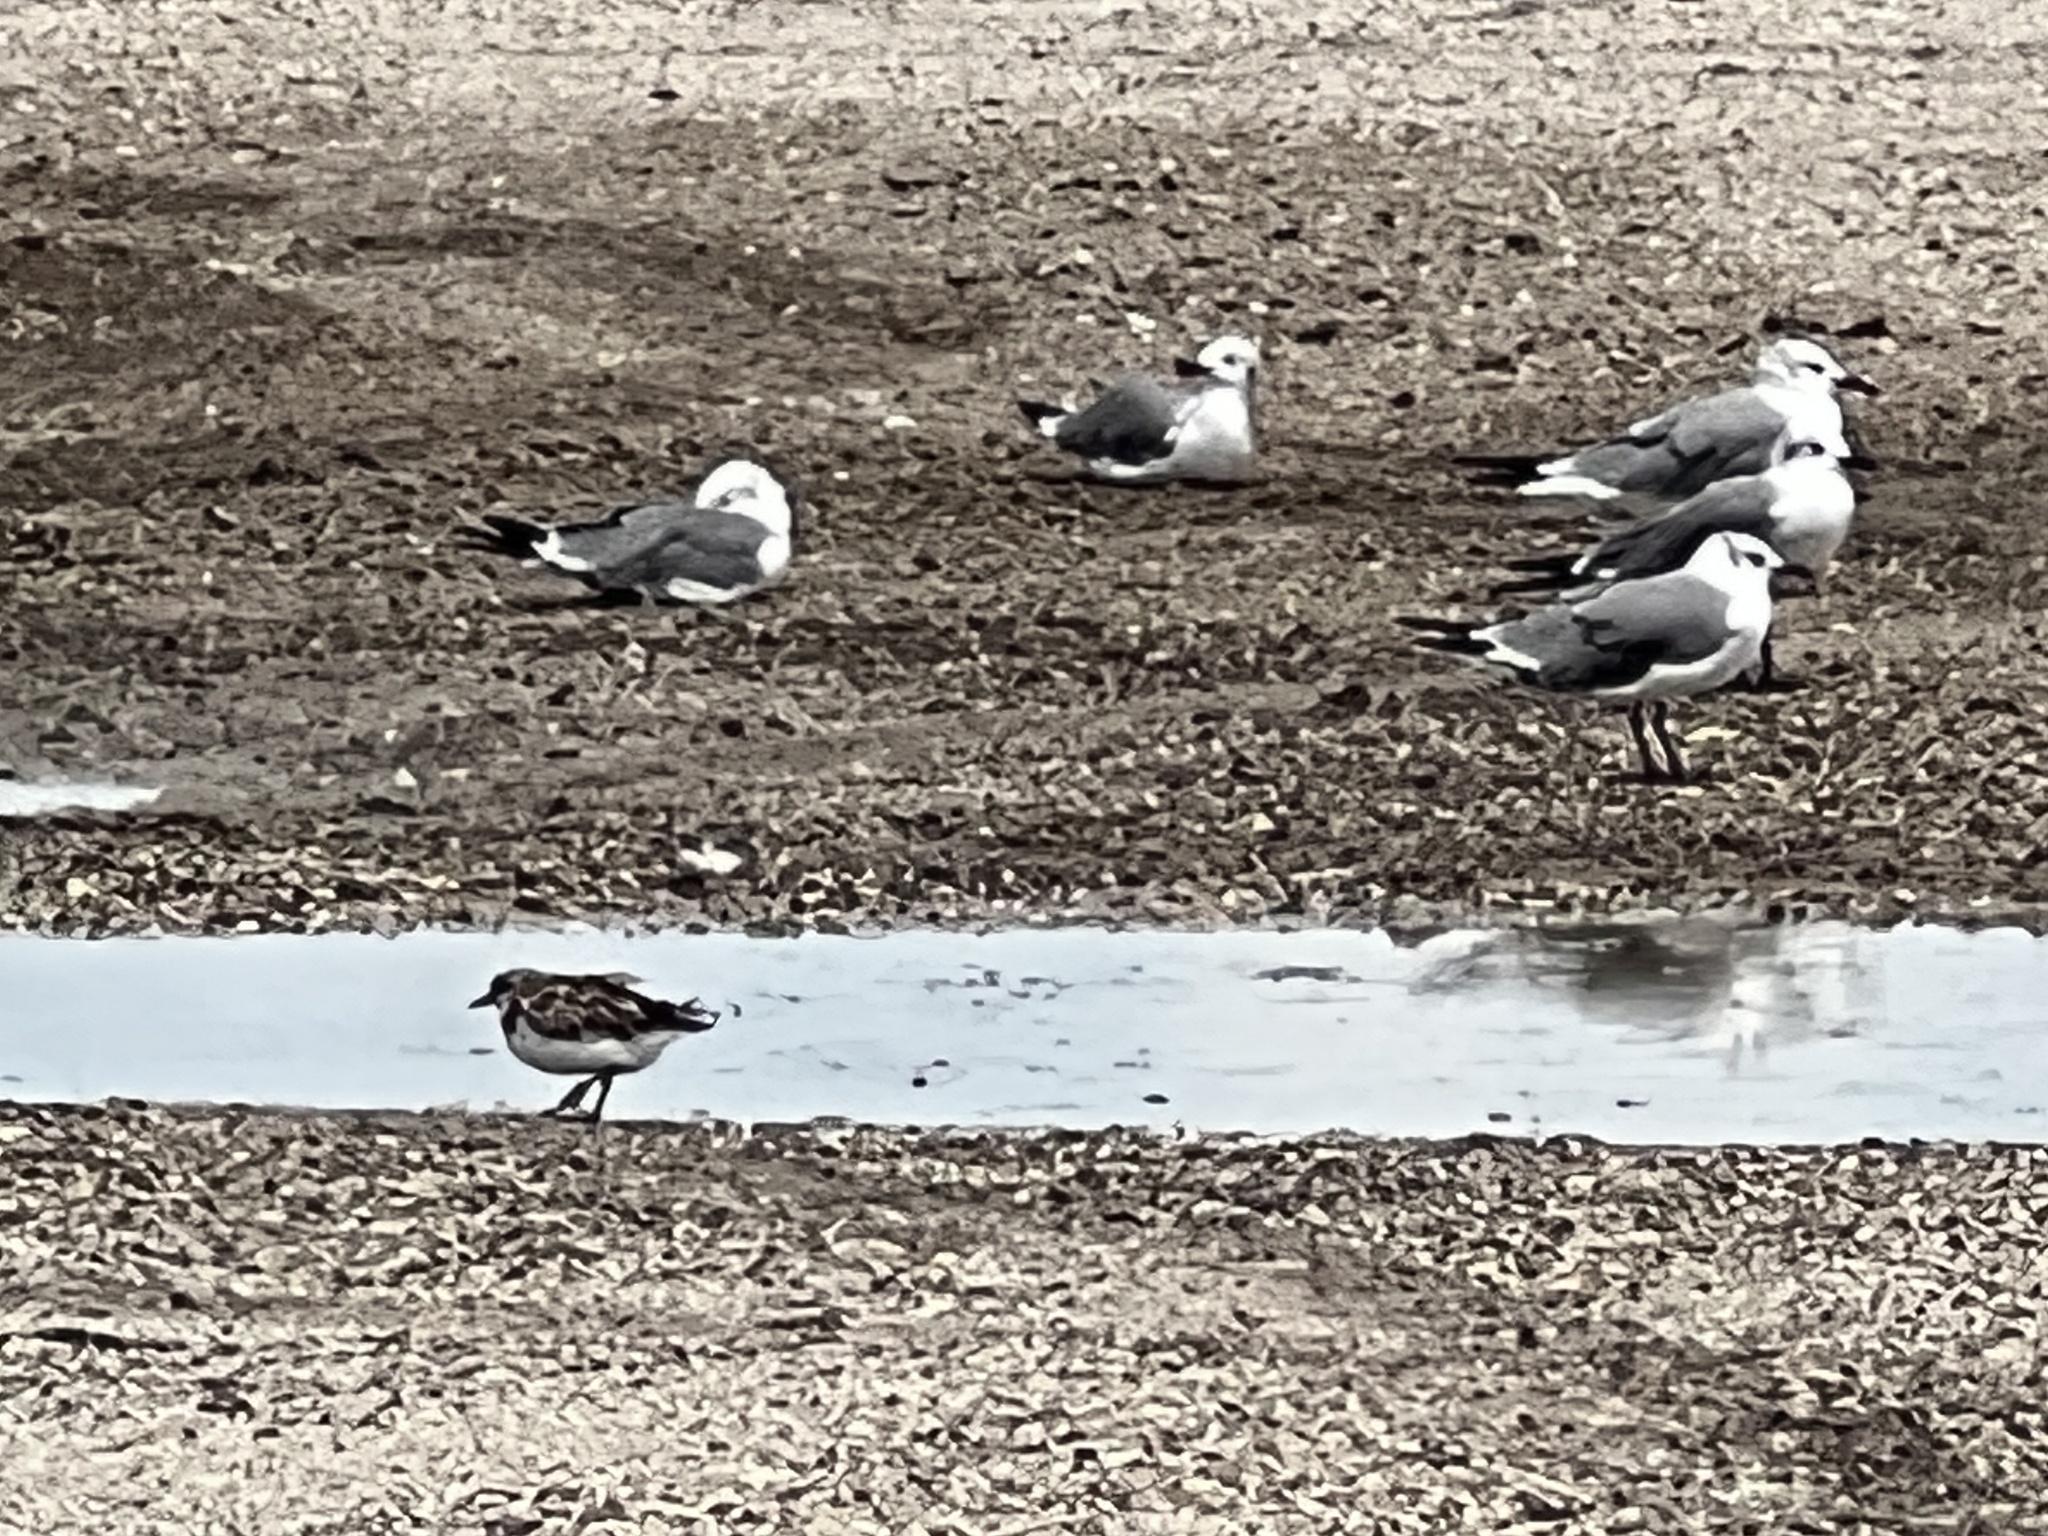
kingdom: Animalia
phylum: Chordata
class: Aves
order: Charadriiformes
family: Scolopacidae
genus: Arenaria
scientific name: Arenaria interpres
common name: Ruddy turnstone
